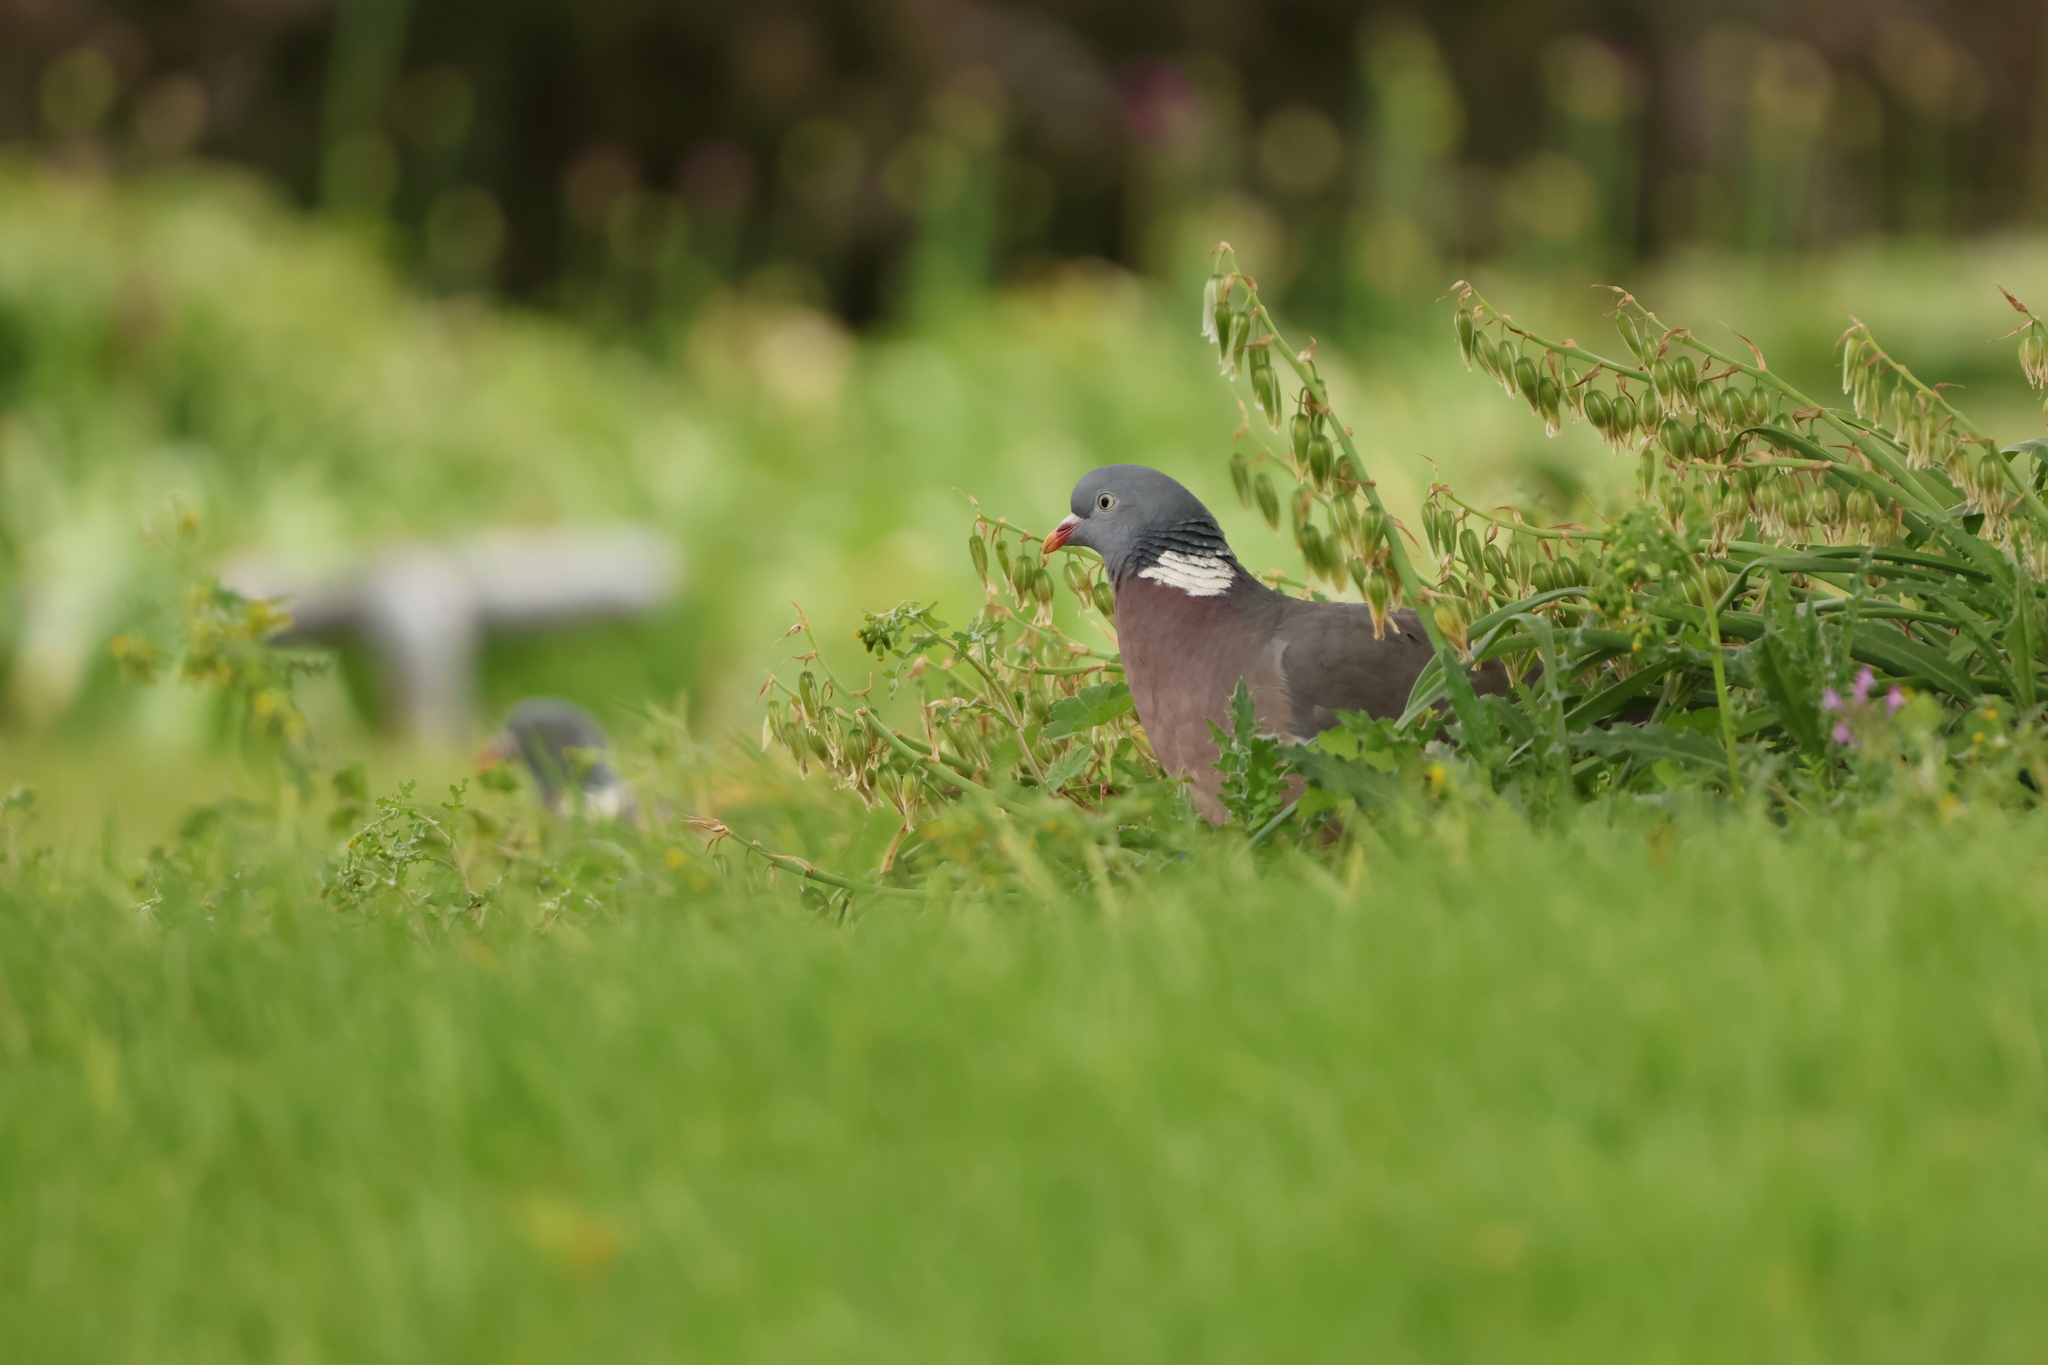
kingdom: Animalia
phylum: Chordata
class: Aves
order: Columbiformes
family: Columbidae
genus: Columba
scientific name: Columba palumbus
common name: Common wood pigeon
